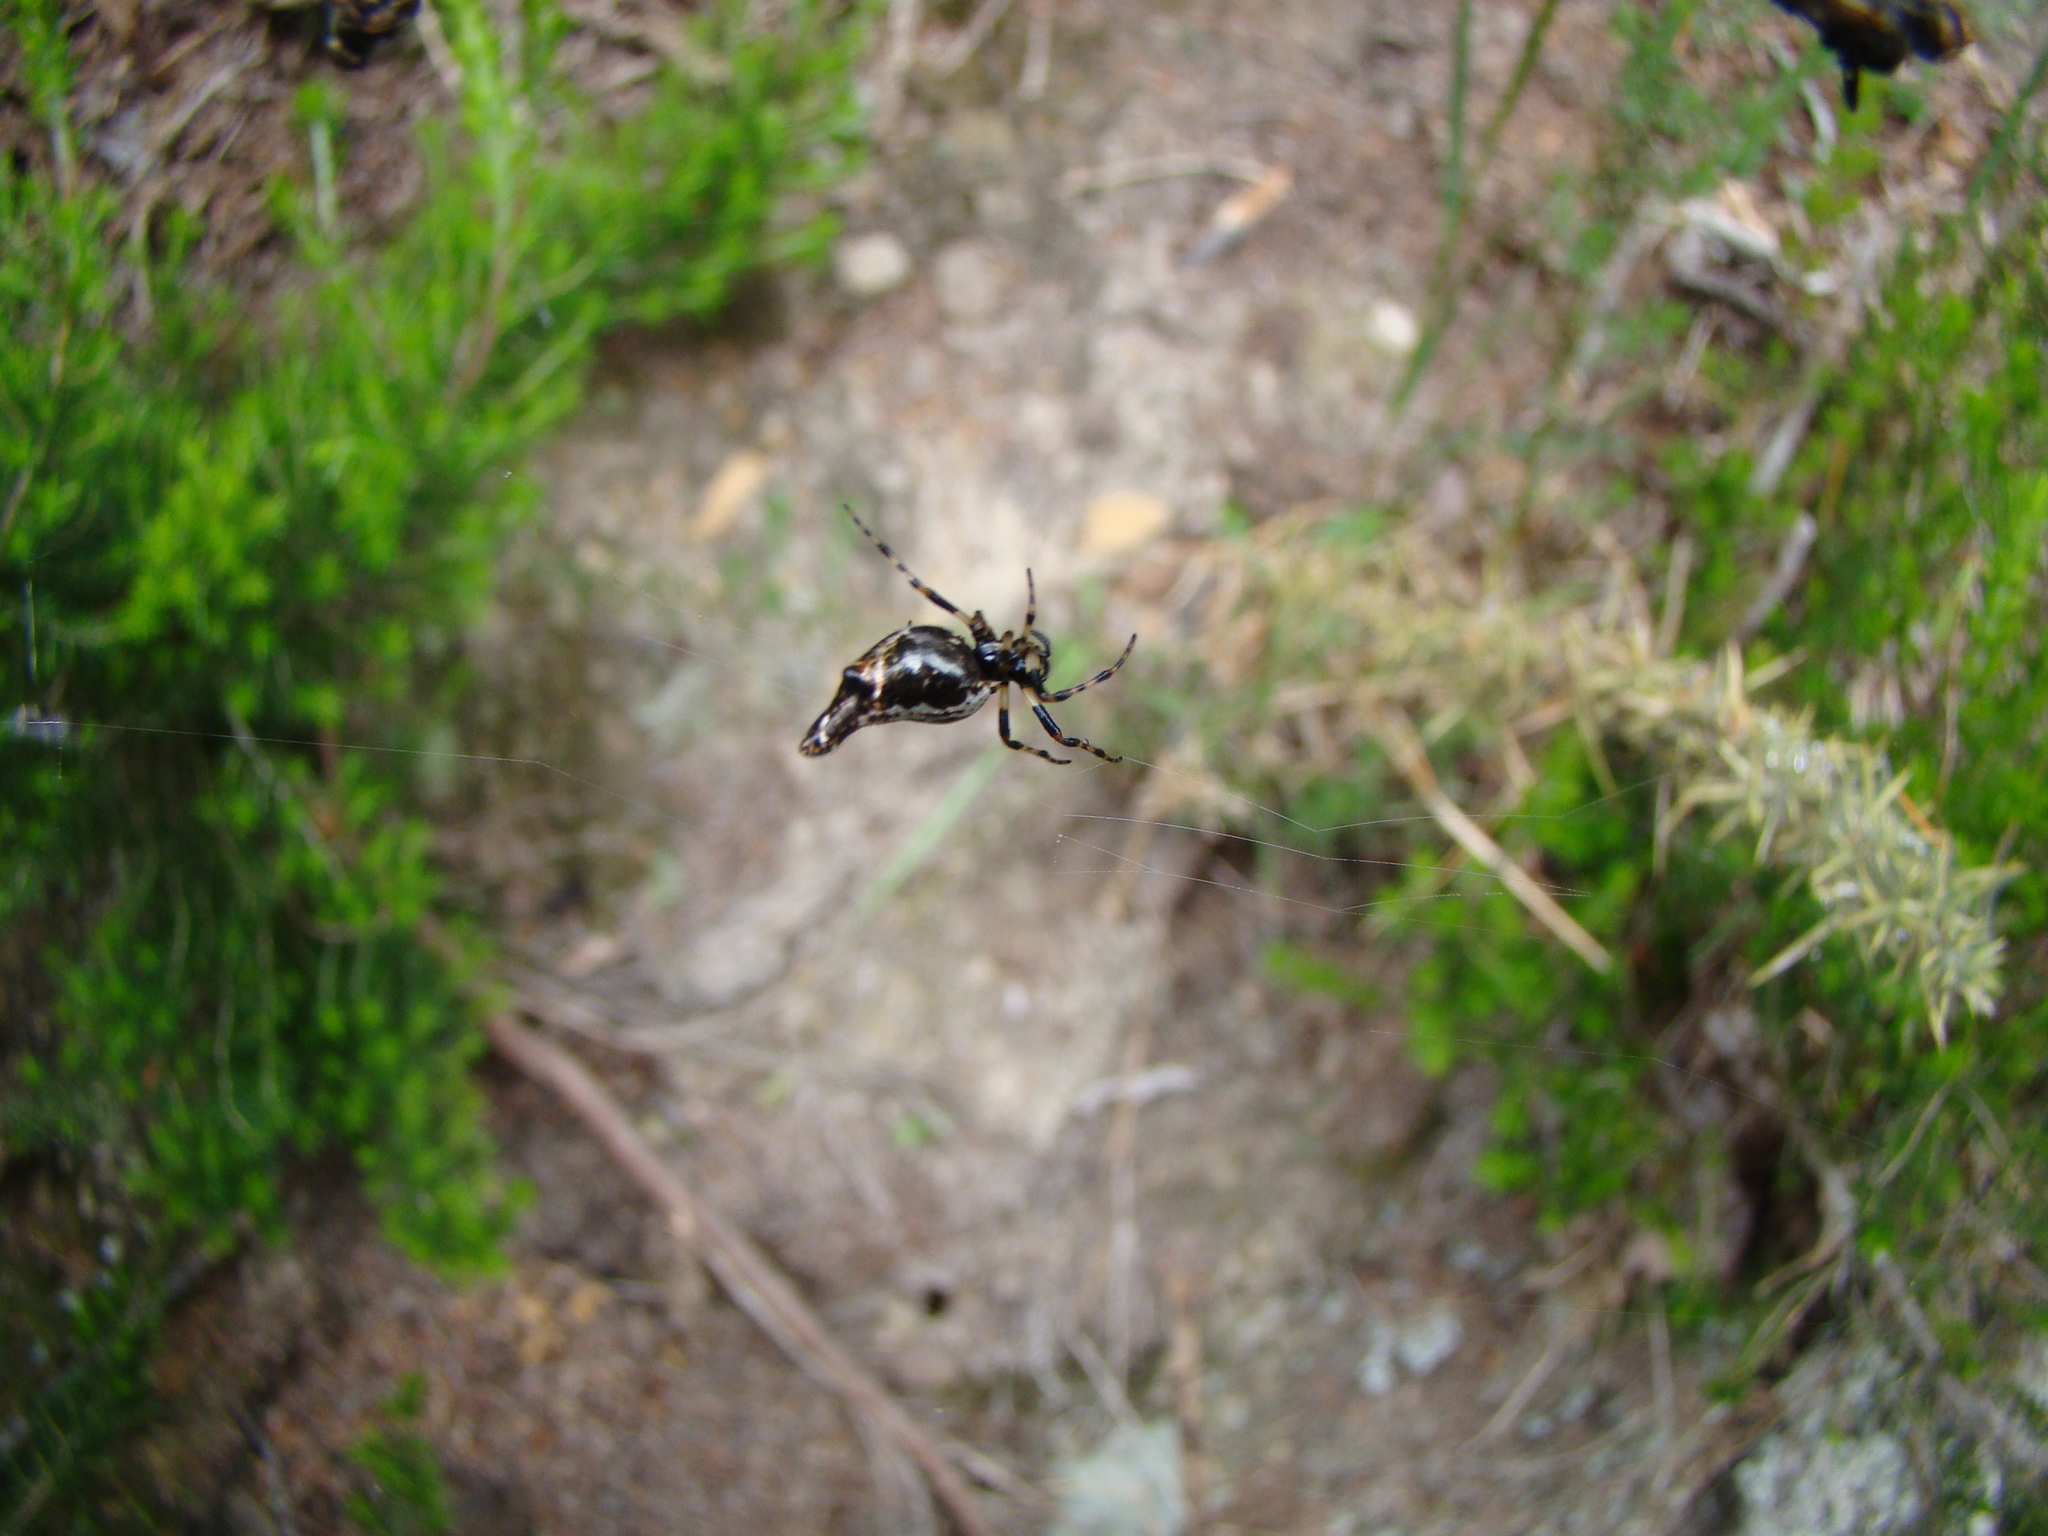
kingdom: Animalia
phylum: Arthropoda
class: Arachnida
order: Araneae
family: Araneidae
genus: Cyclosa
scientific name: Cyclosa trilobata
